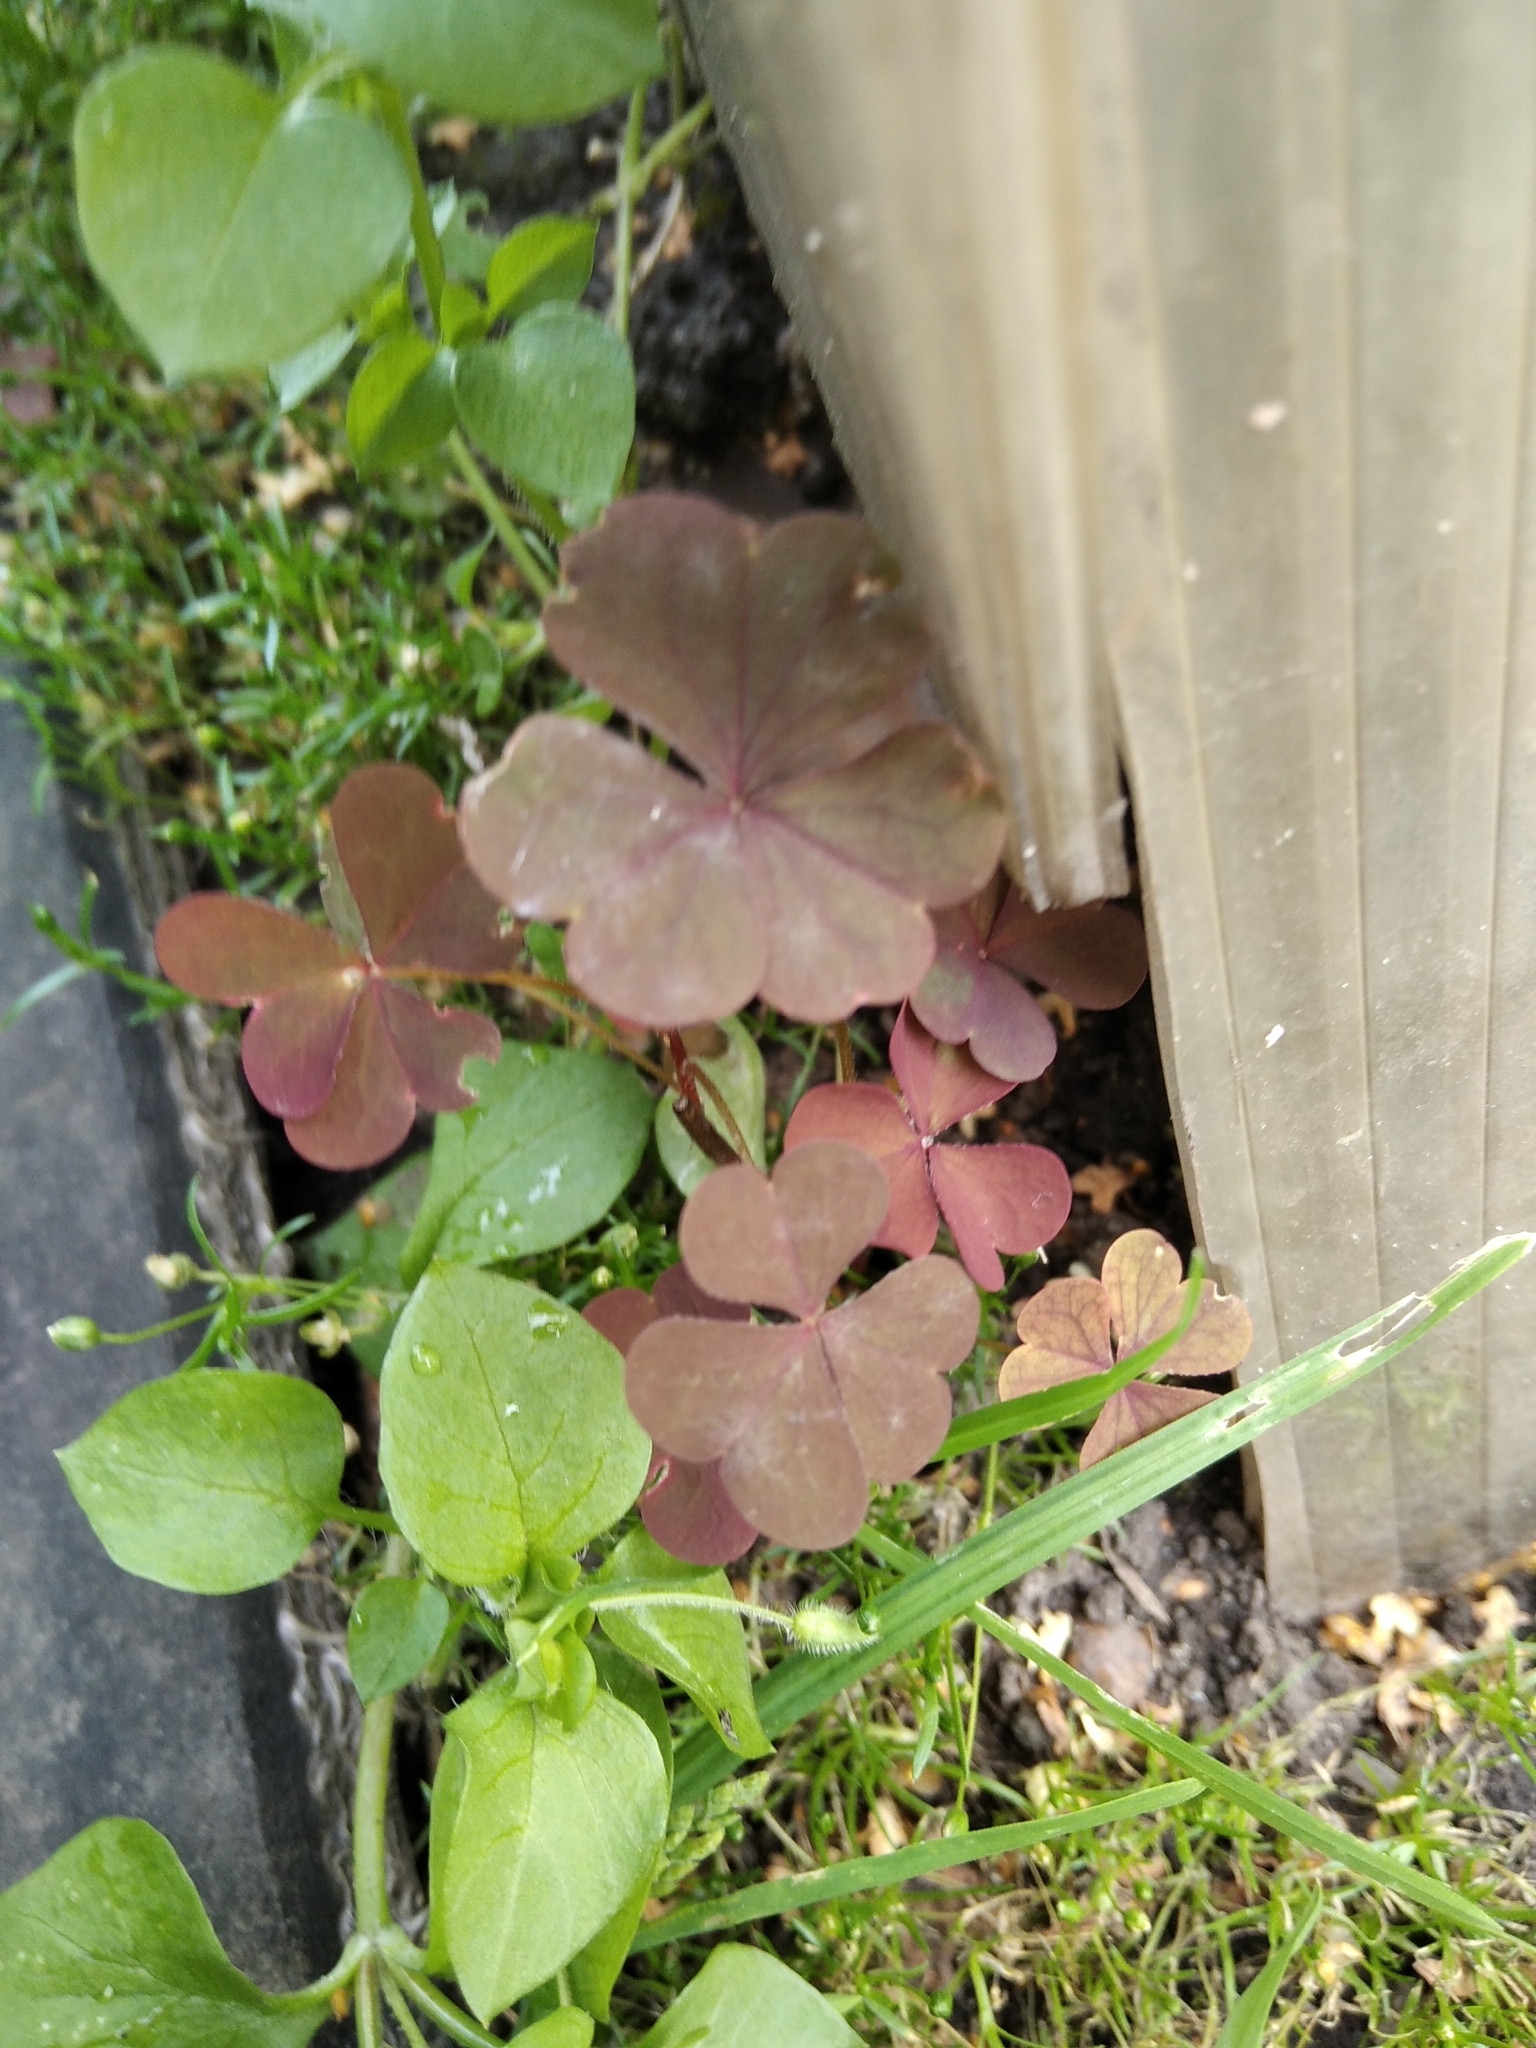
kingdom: Plantae
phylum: Tracheophyta
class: Magnoliopsida
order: Oxalidales
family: Oxalidaceae
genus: Oxalis
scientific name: Oxalis stricta
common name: Upright yellow-sorrel
